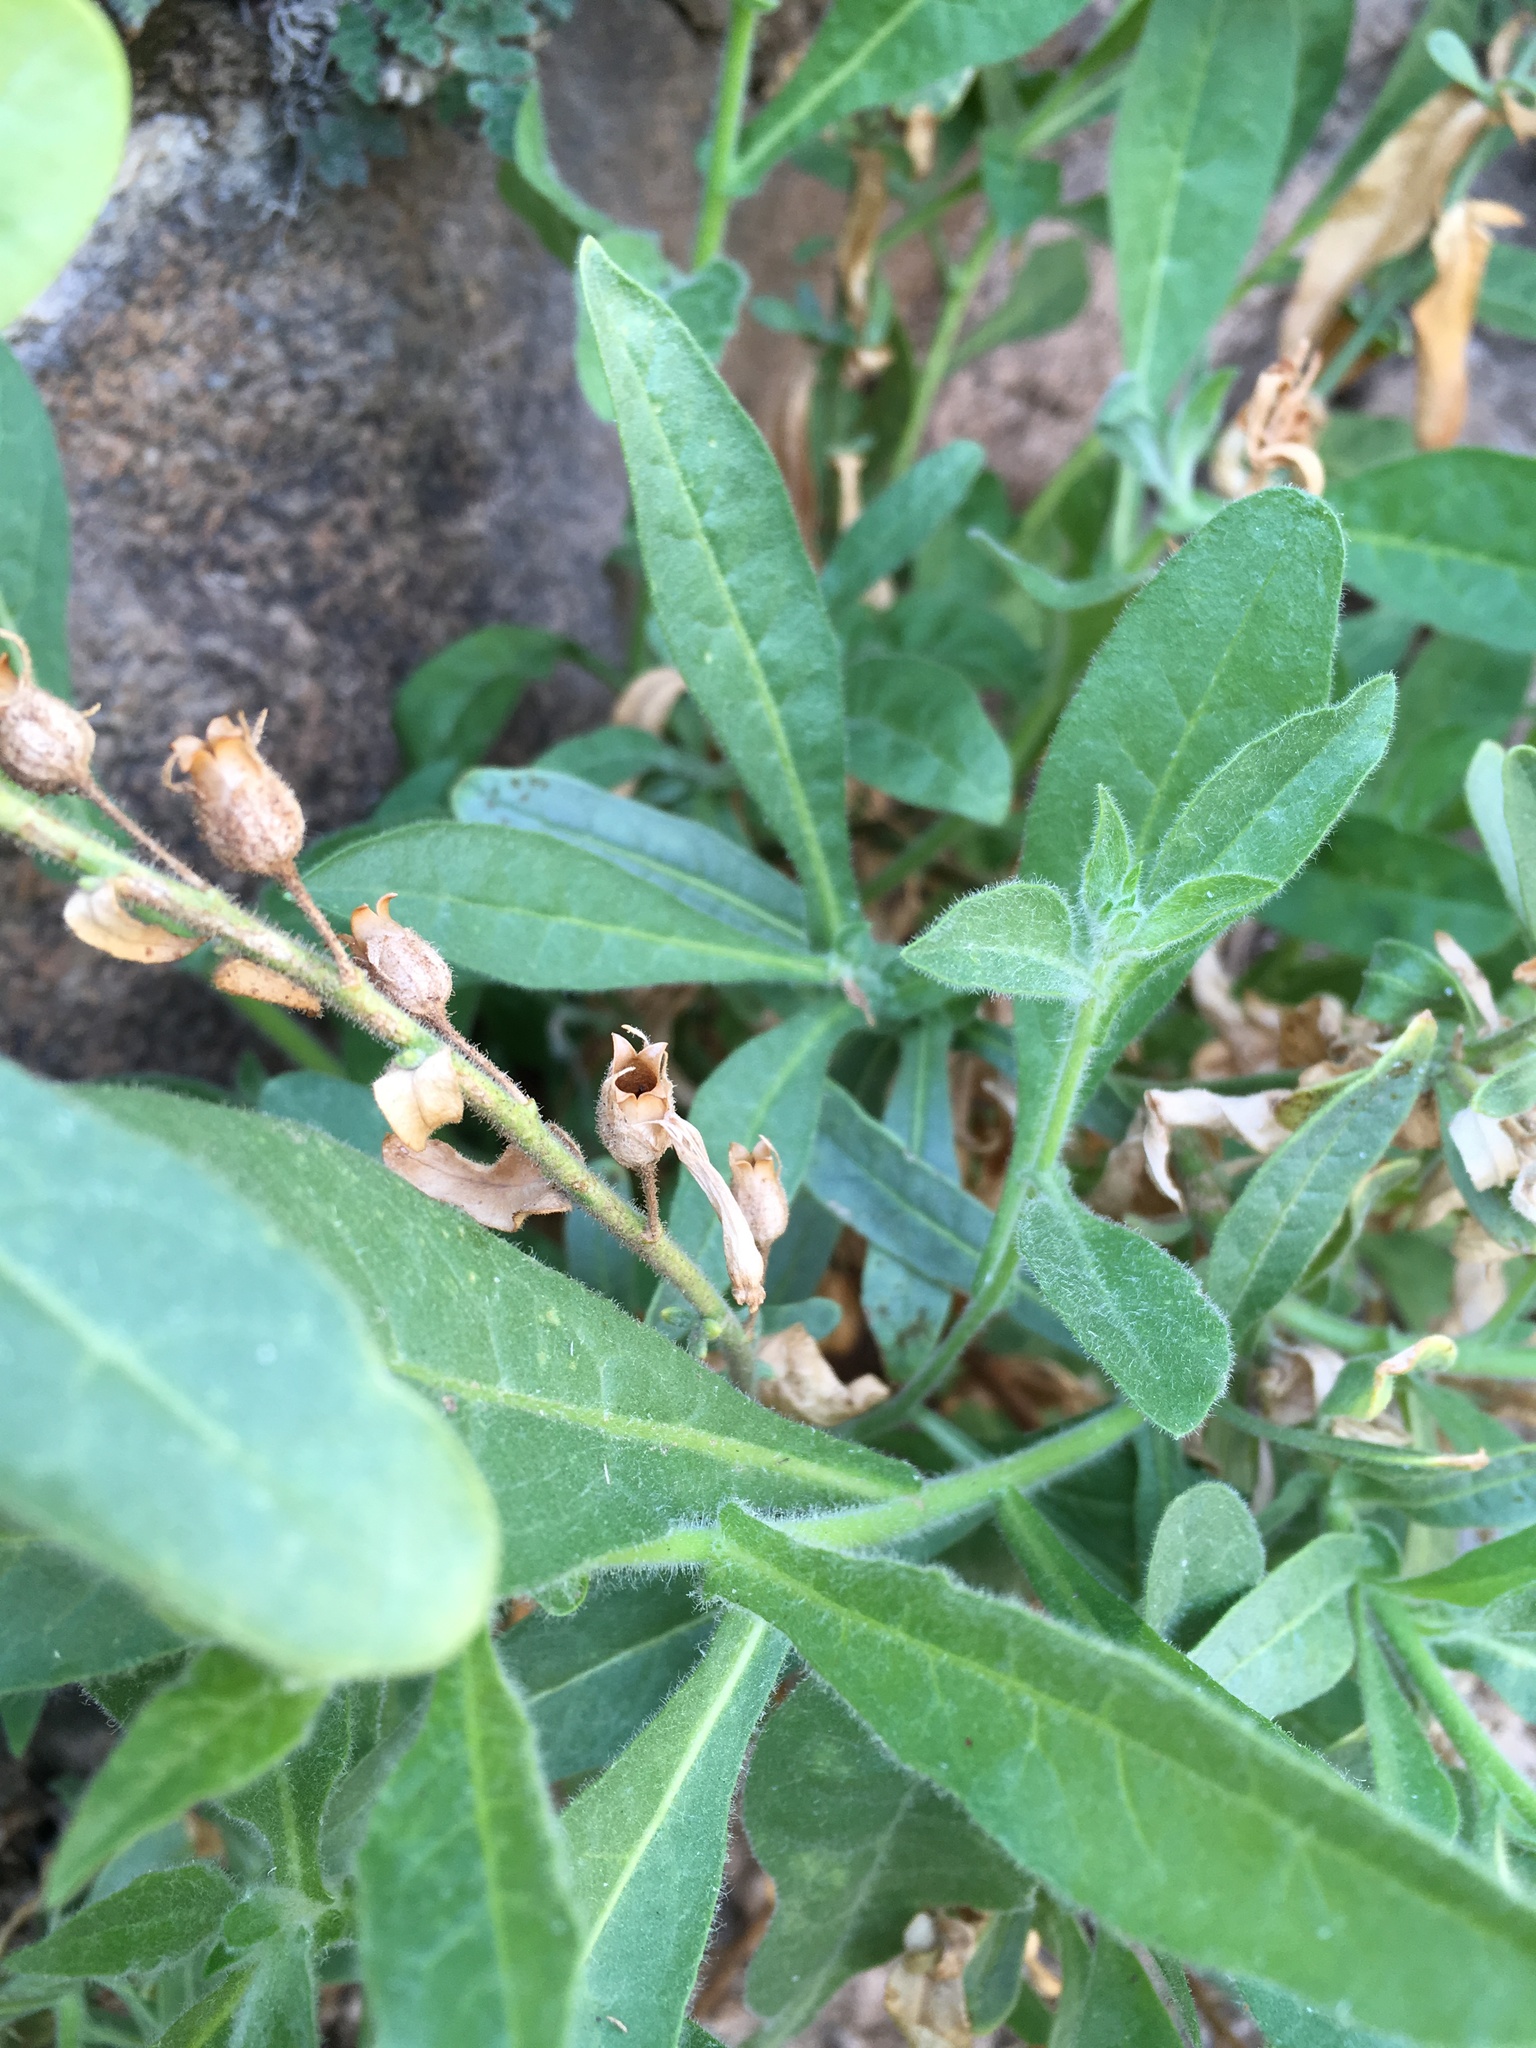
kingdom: Plantae
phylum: Tracheophyta
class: Magnoliopsida
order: Solanales
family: Solanaceae
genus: Nicotiana
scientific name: Nicotiana obtusifolia
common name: Desert tobacco
